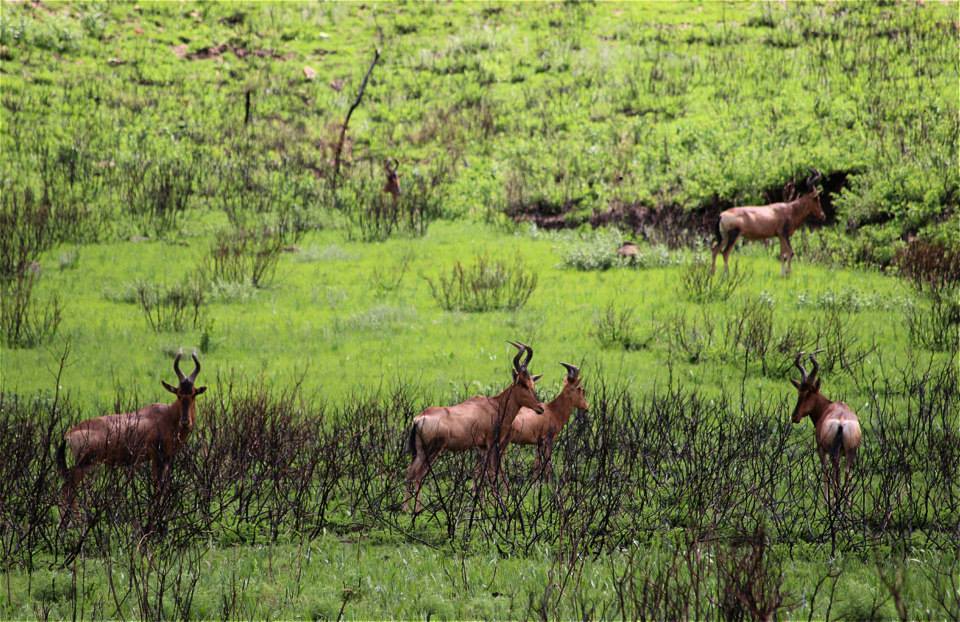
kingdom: Animalia
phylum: Chordata
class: Mammalia
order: Artiodactyla
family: Bovidae
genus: Alcelaphus
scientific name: Alcelaphus caama
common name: Red hartebeest
